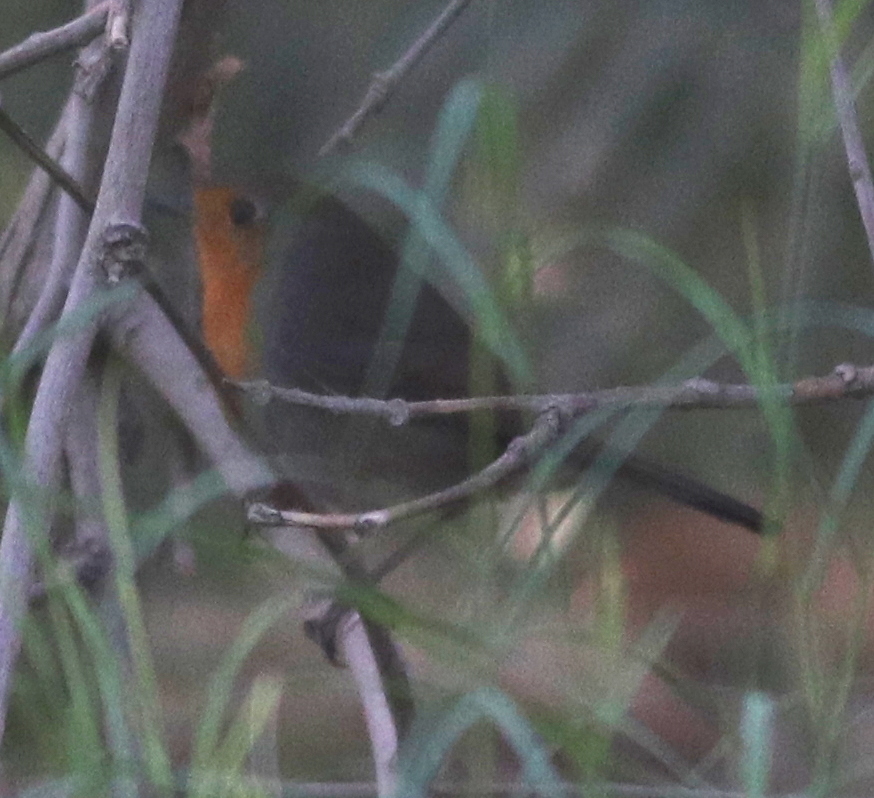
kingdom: Animalia
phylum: Chordata
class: Aves
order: Passeriformes
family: Muscicapidae
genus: Erithacus
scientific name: Erithacus rubecula
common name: European robin
